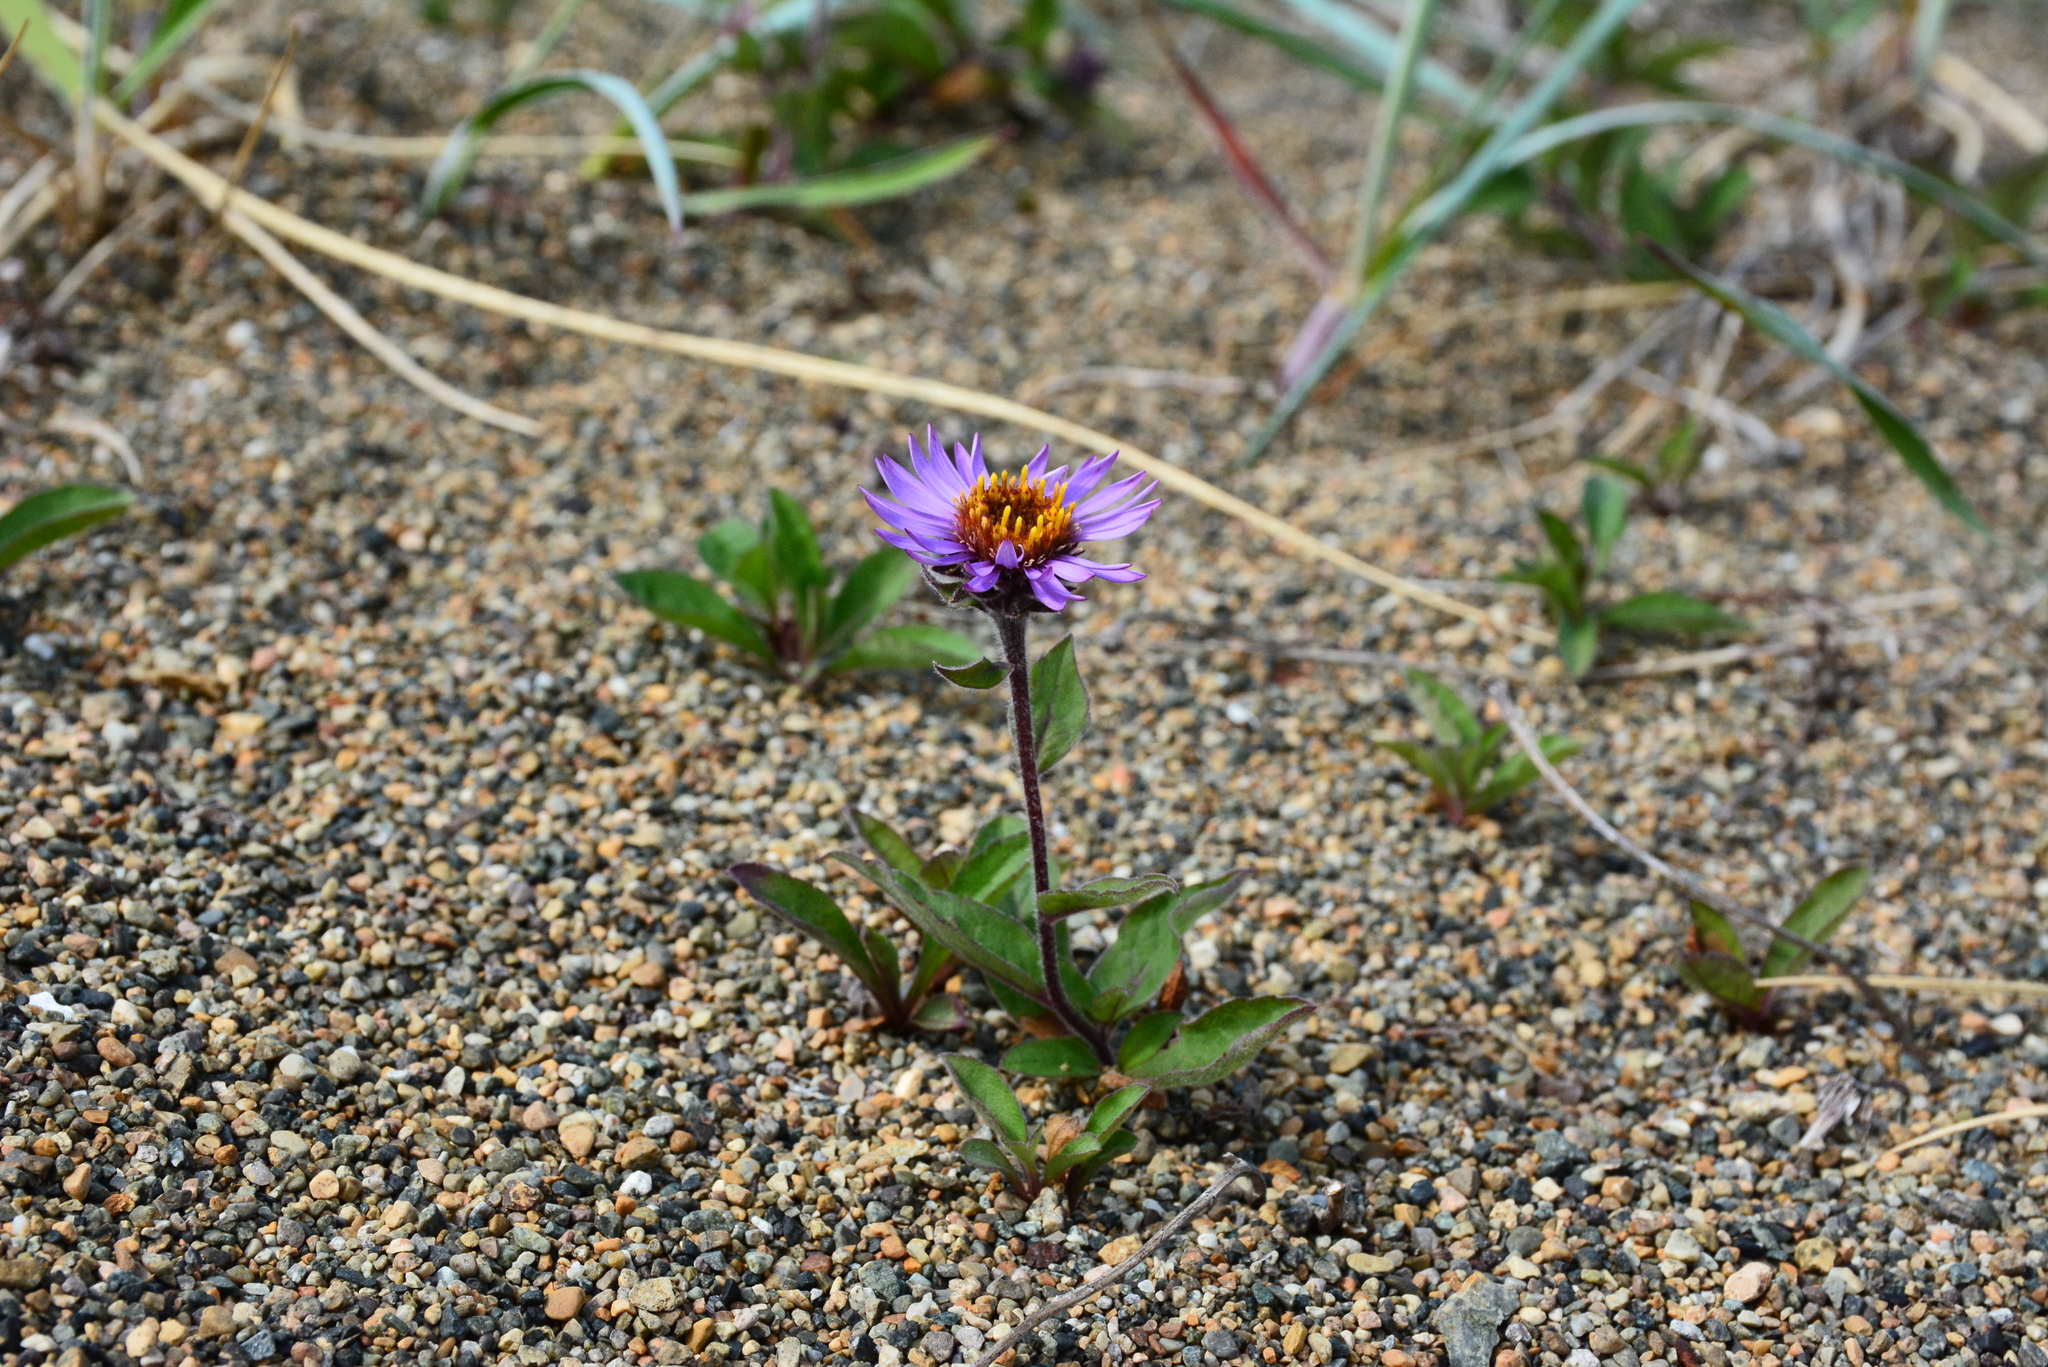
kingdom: Plantae
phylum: Tracheophyta
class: Magnoliopsida
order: Asterales
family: Asteraceae
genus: Eurybia
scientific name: Eurybia sibirica
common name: Arctic aster
